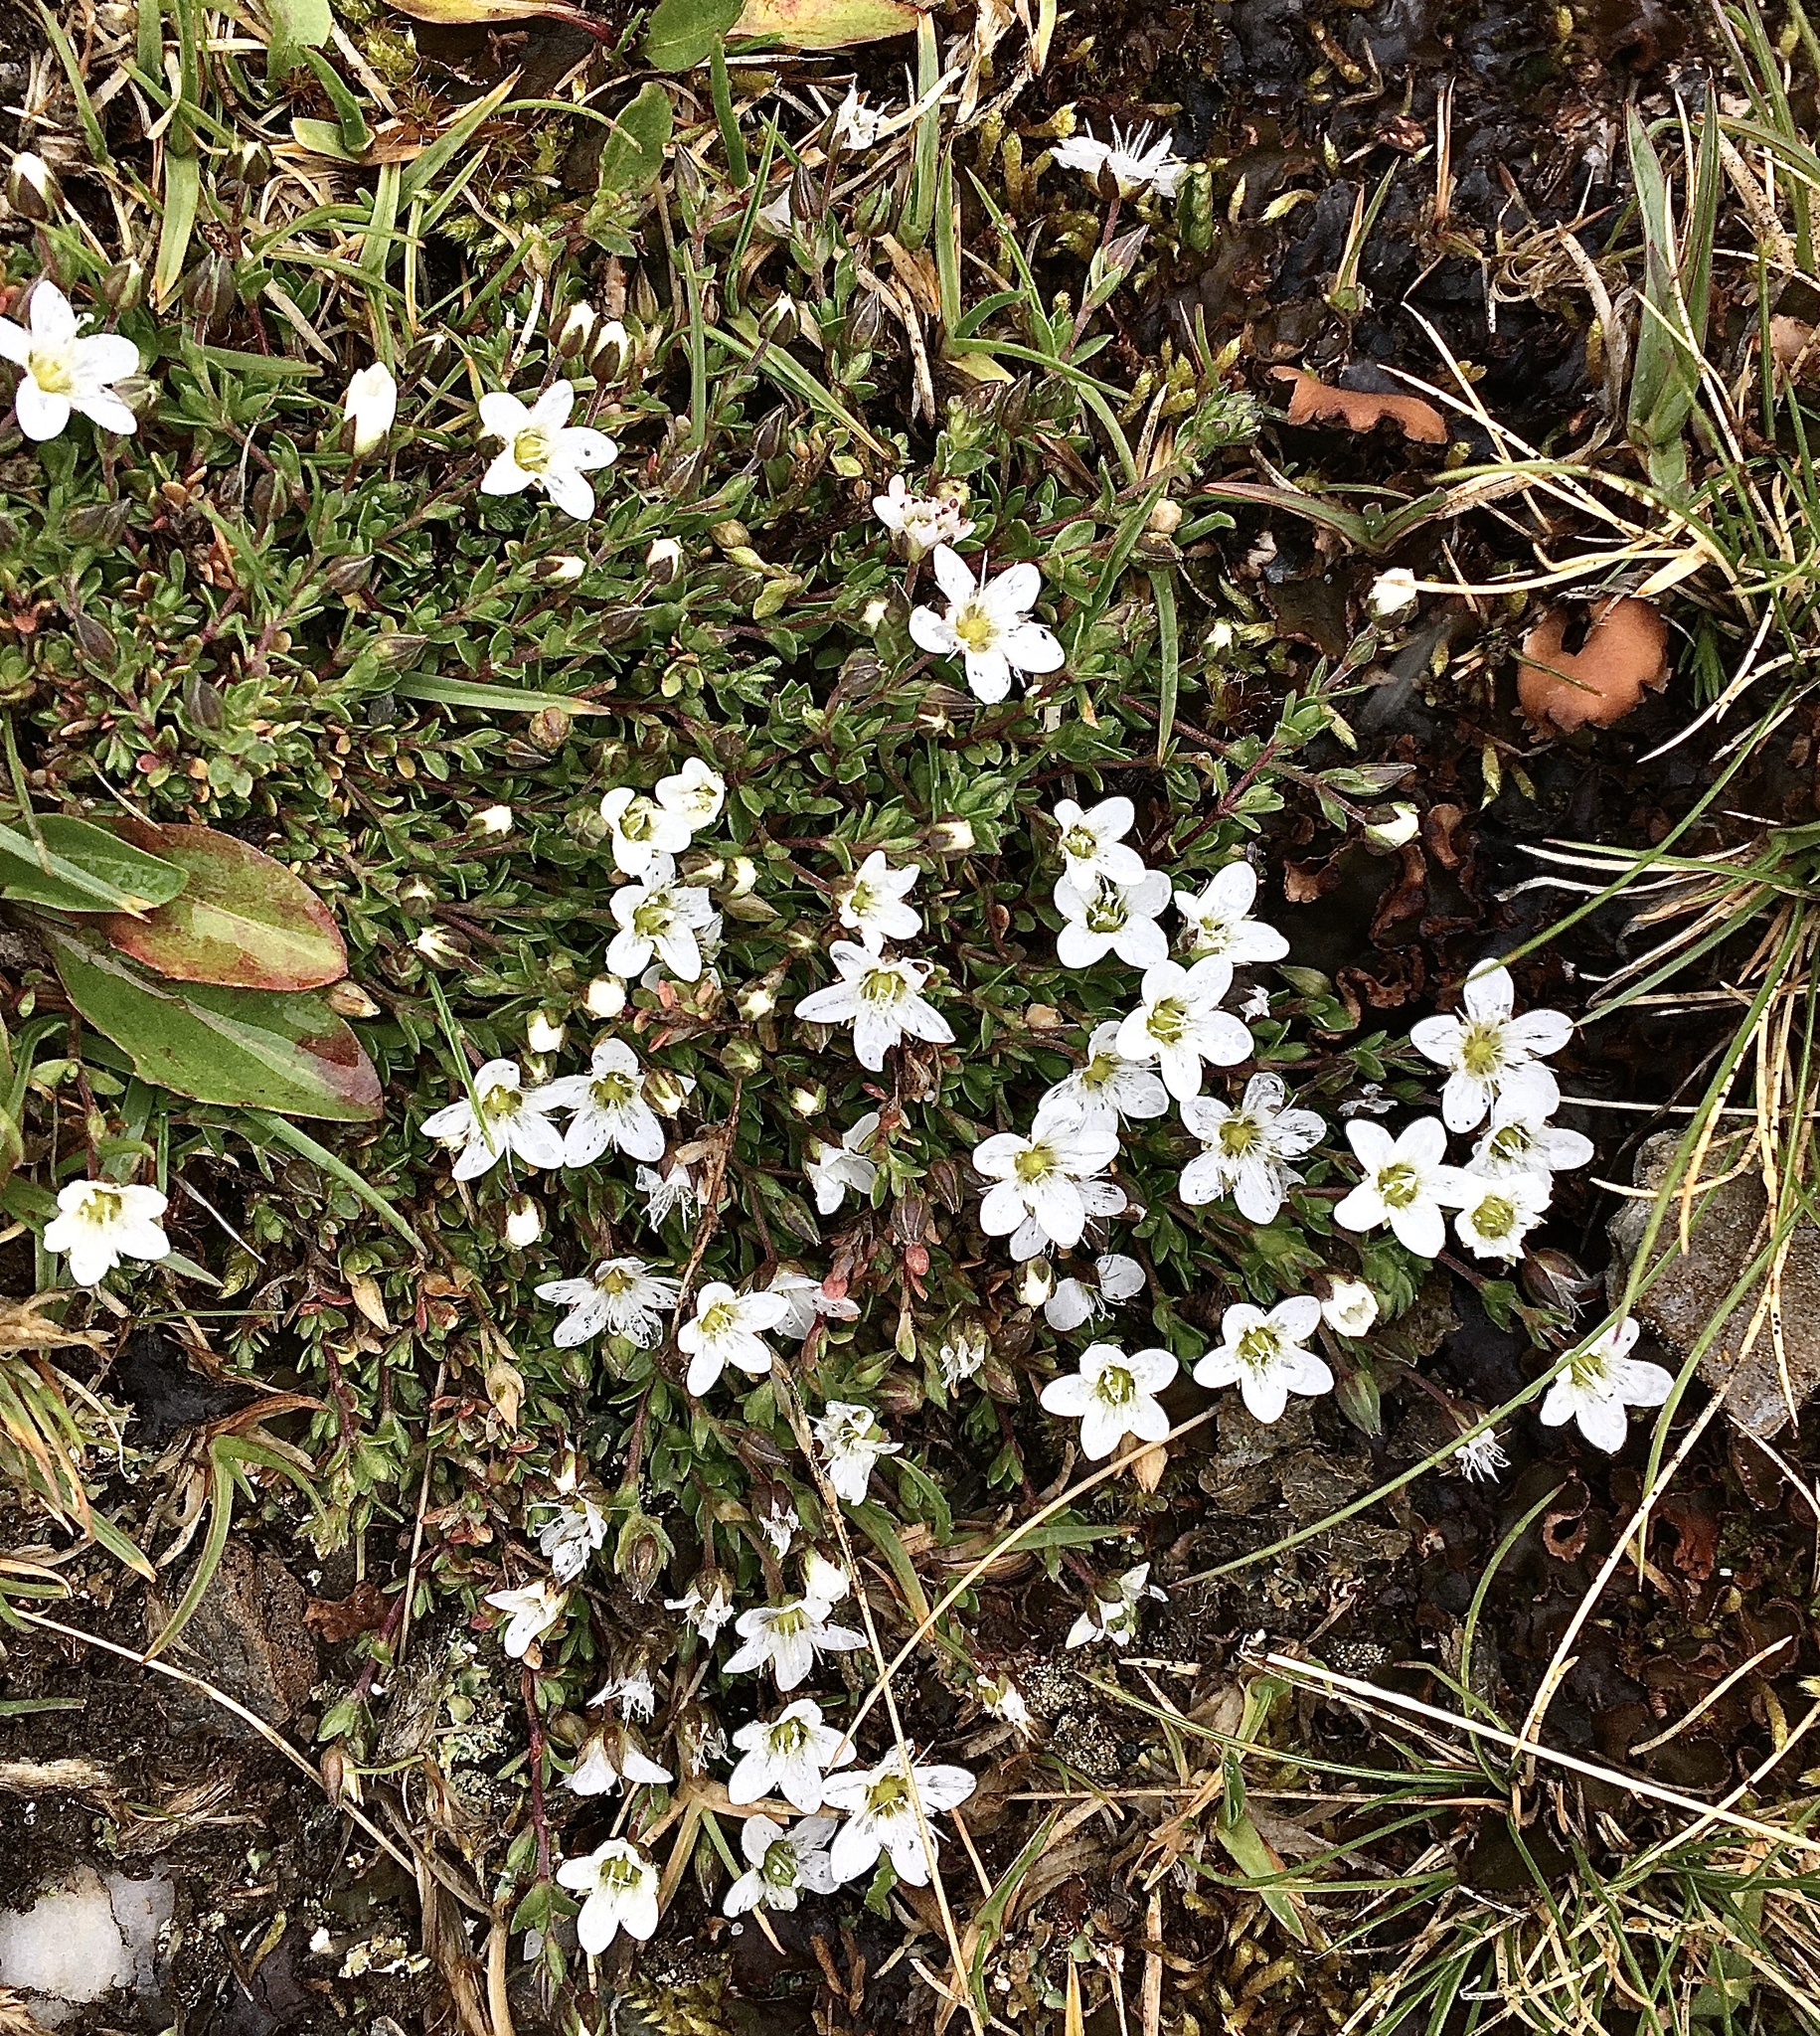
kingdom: Plantae
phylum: Tracheophyta
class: Magnoliopsida
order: Caryophyllales
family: Caryophyllaceae
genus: Arenaria
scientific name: Arenaria ciliata
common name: Fringed sandwort
